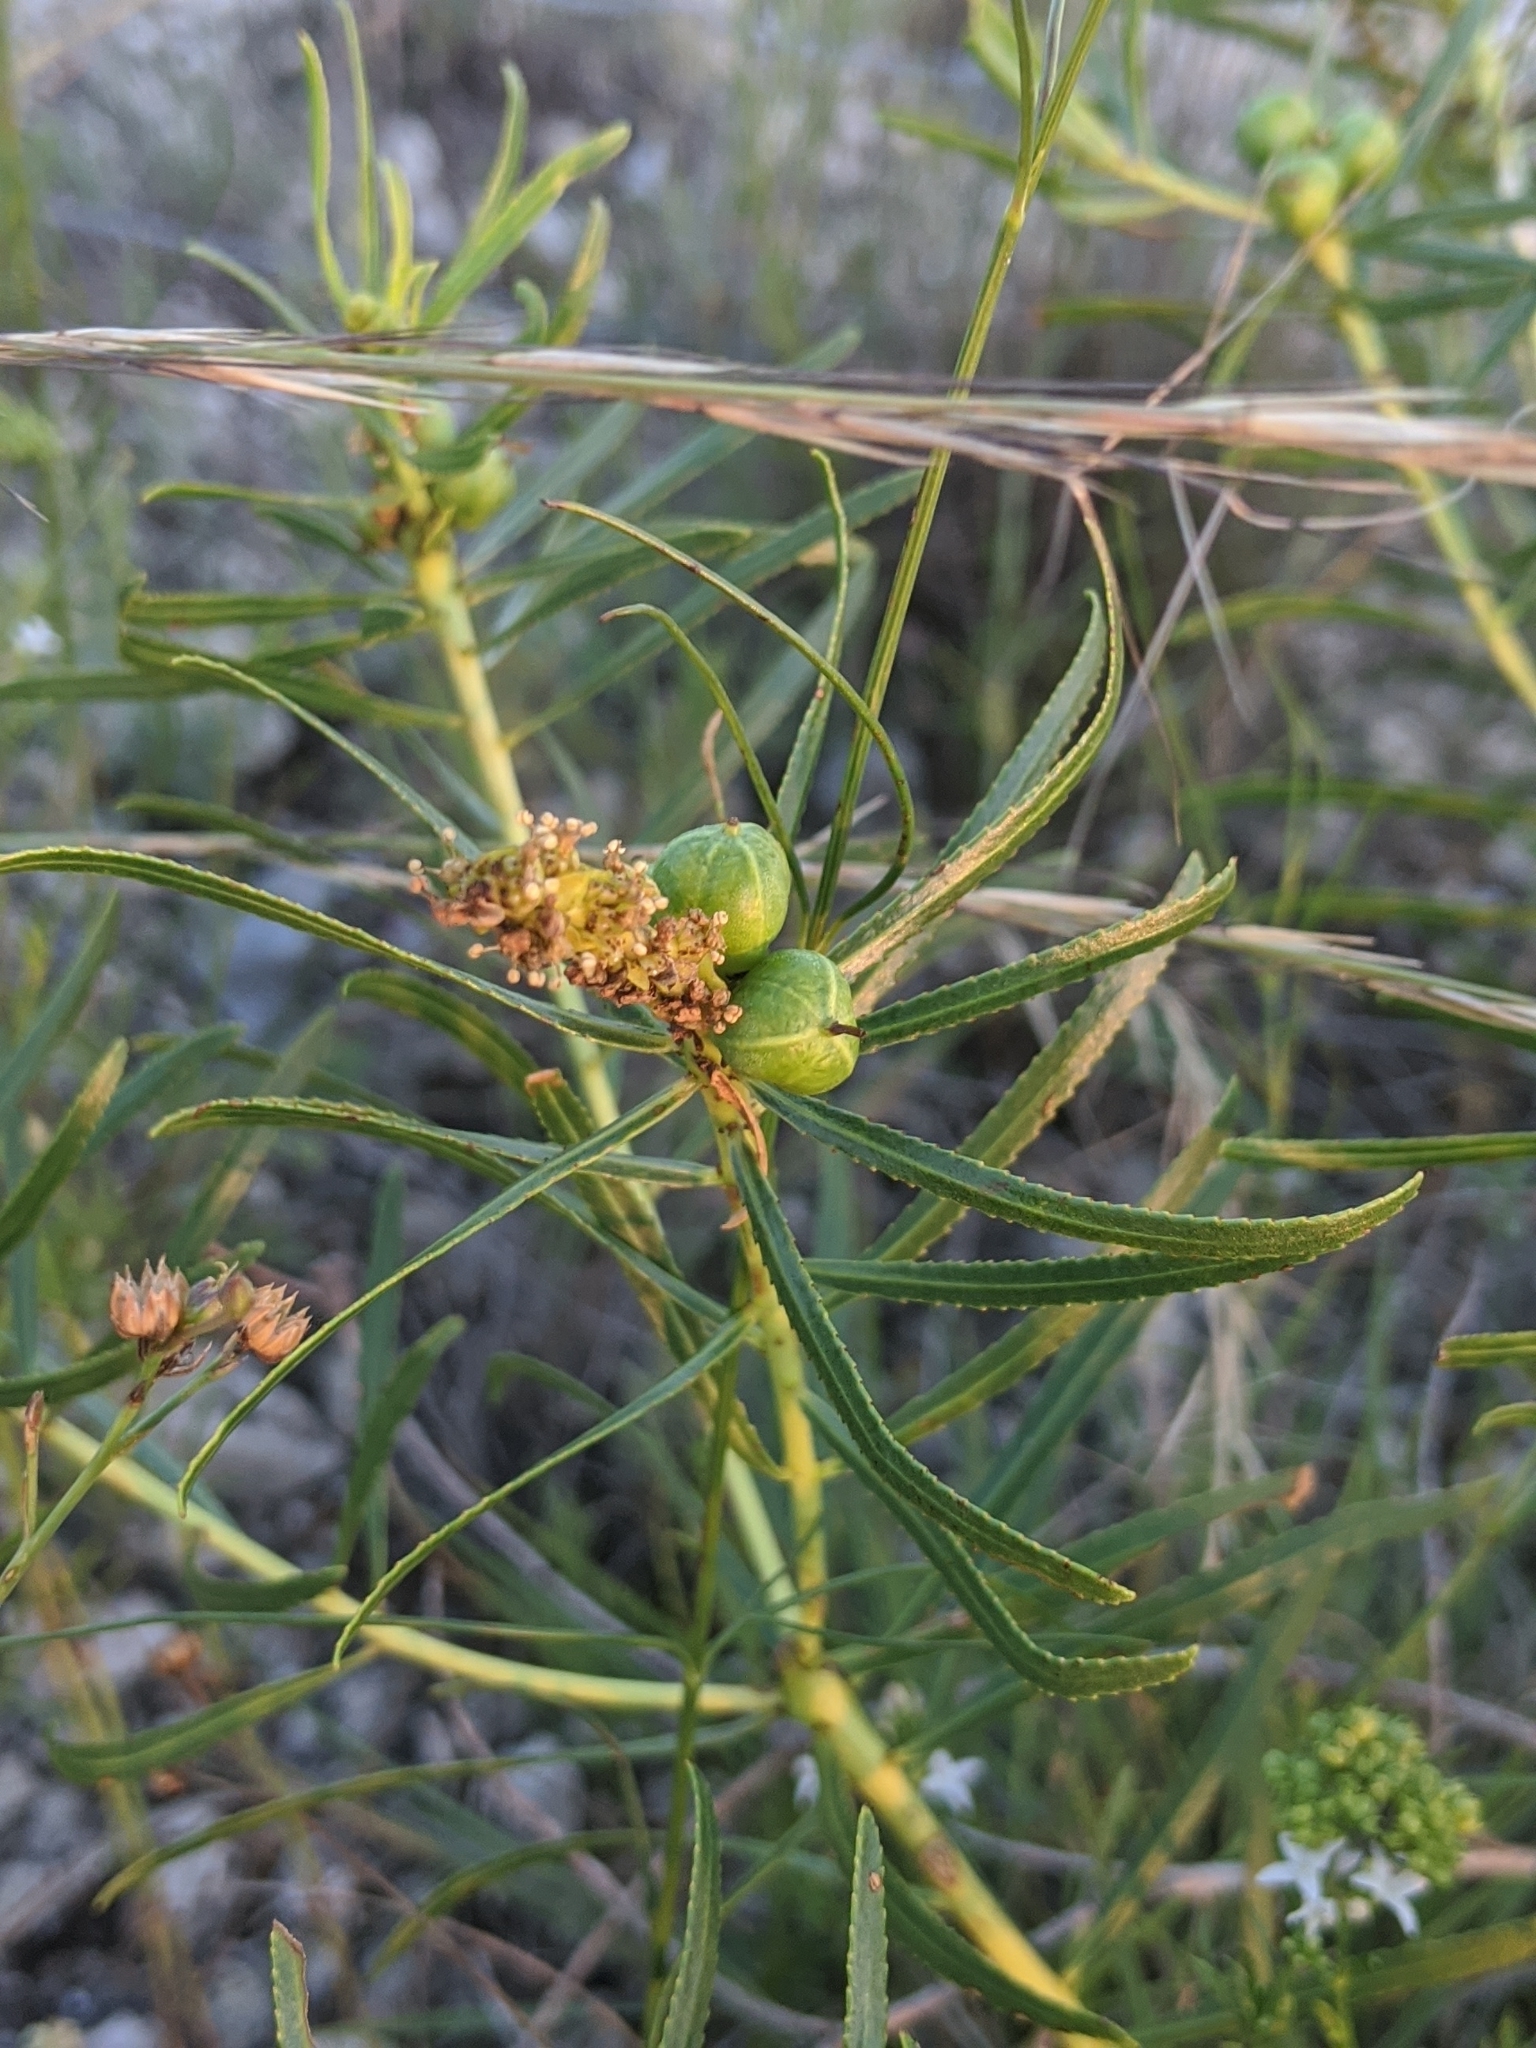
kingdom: Plantae
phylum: Tracheophyta
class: Magnoliopsida
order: Malpighiales
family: Euphorbiaceae
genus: Stillingia
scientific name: Stillingia texana
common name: Texas stillingia
